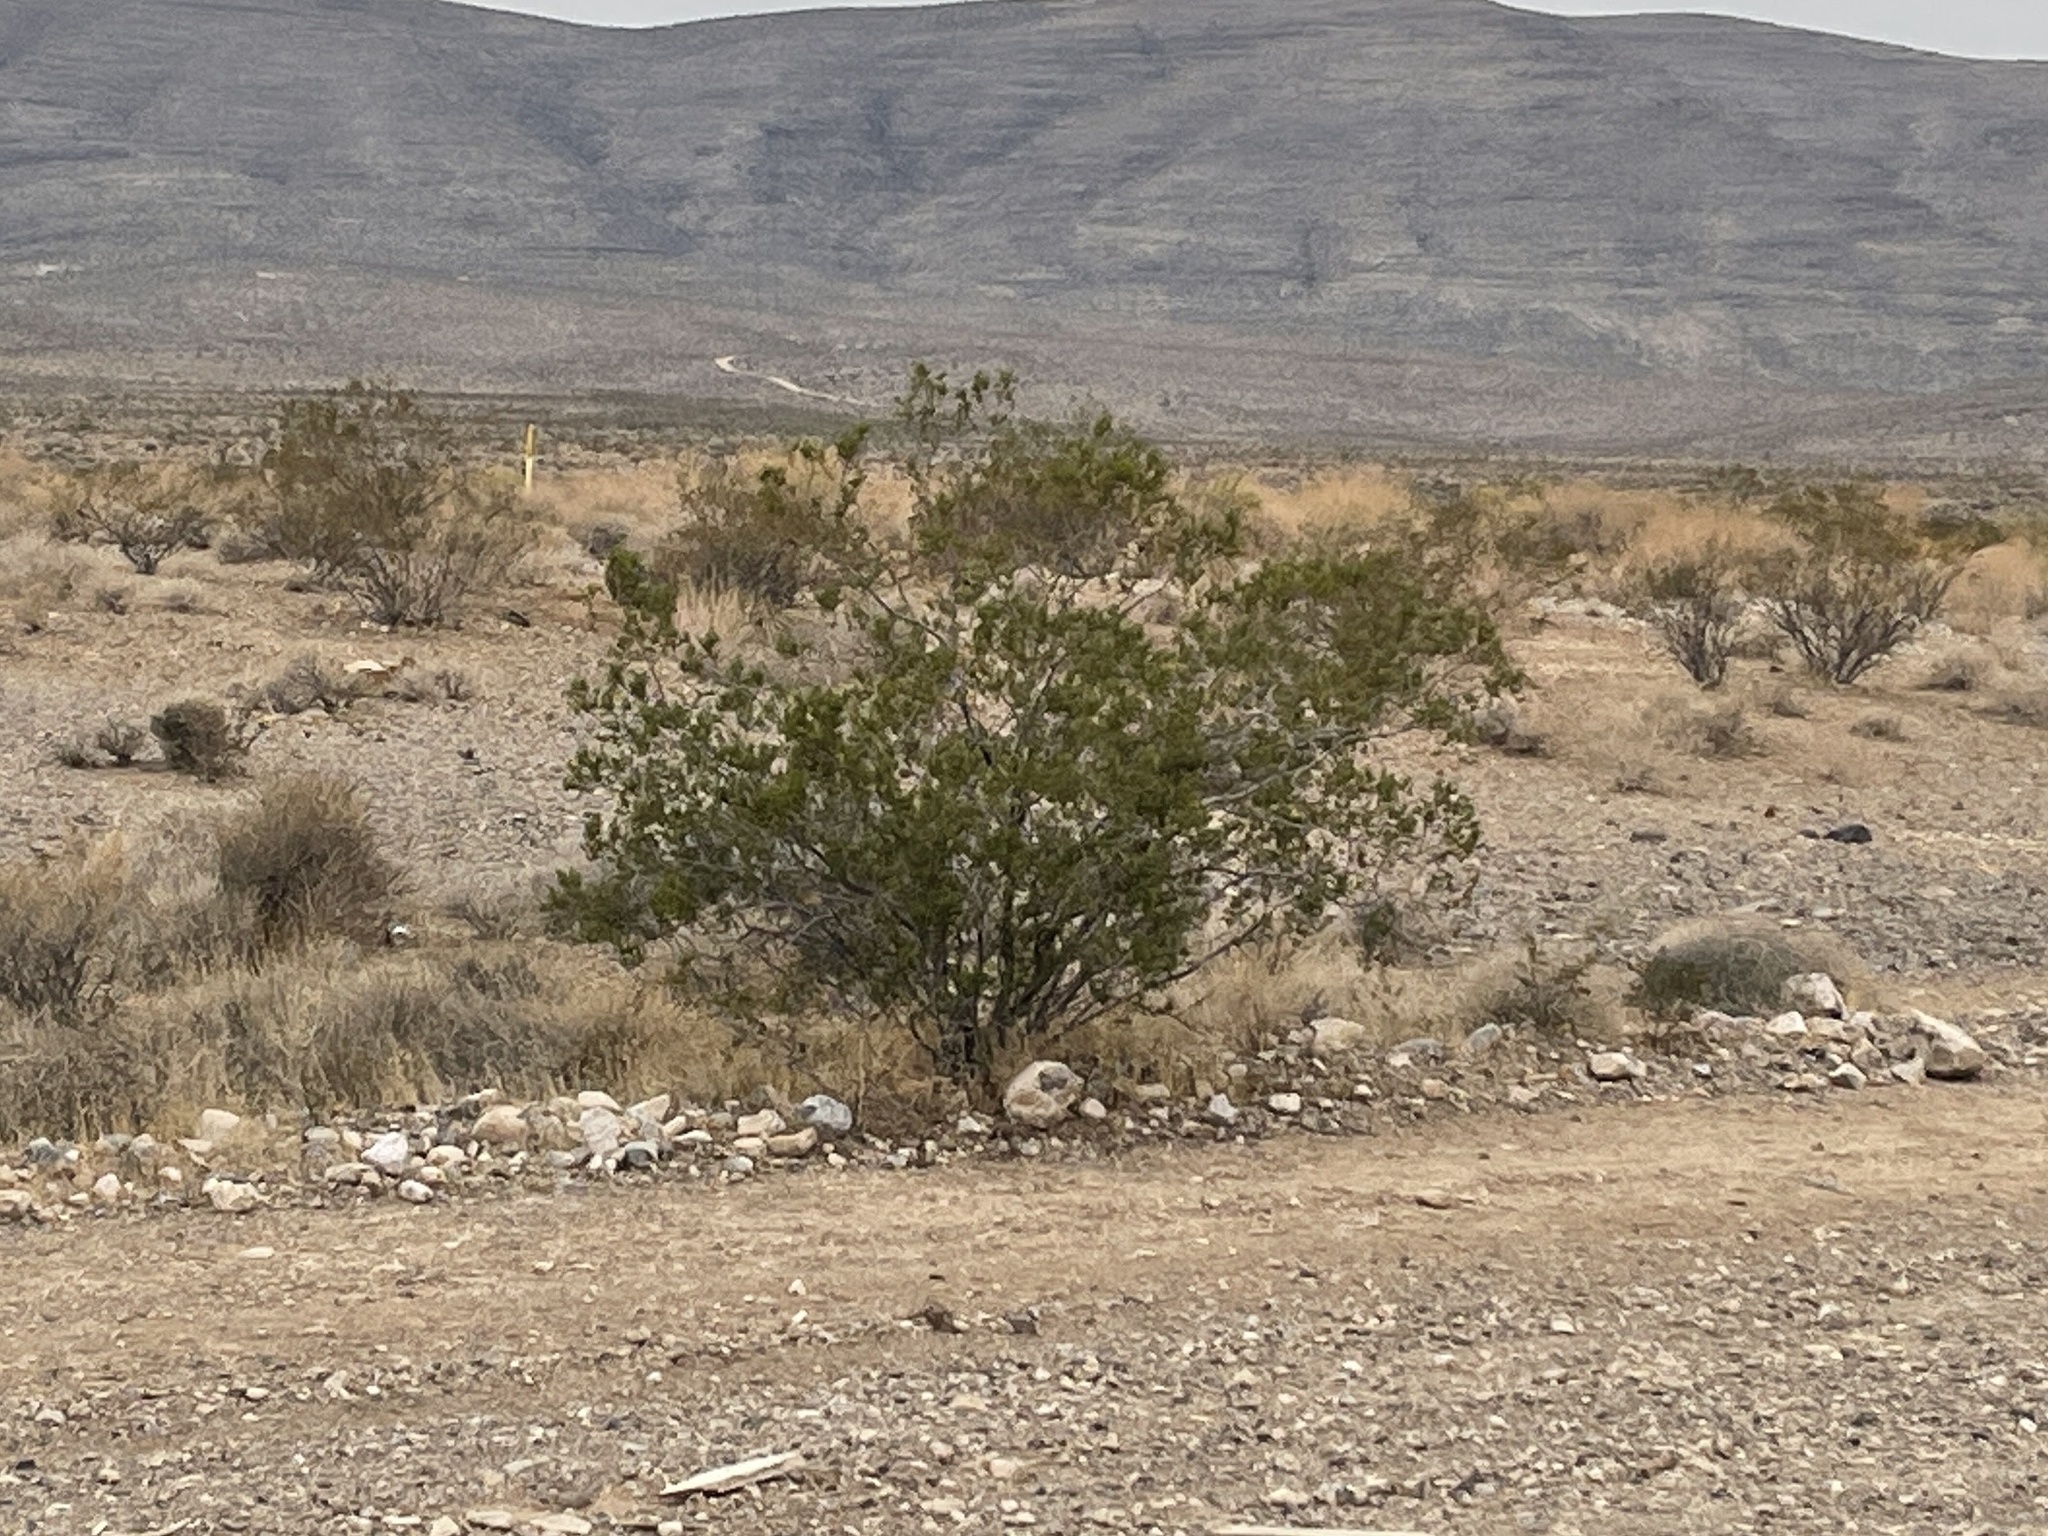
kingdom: Plantae
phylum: Tracheophyta
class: Magnoliopsida
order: Zygophyllales
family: Zygophyllaceae
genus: Larrea
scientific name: Larrea tridentata
